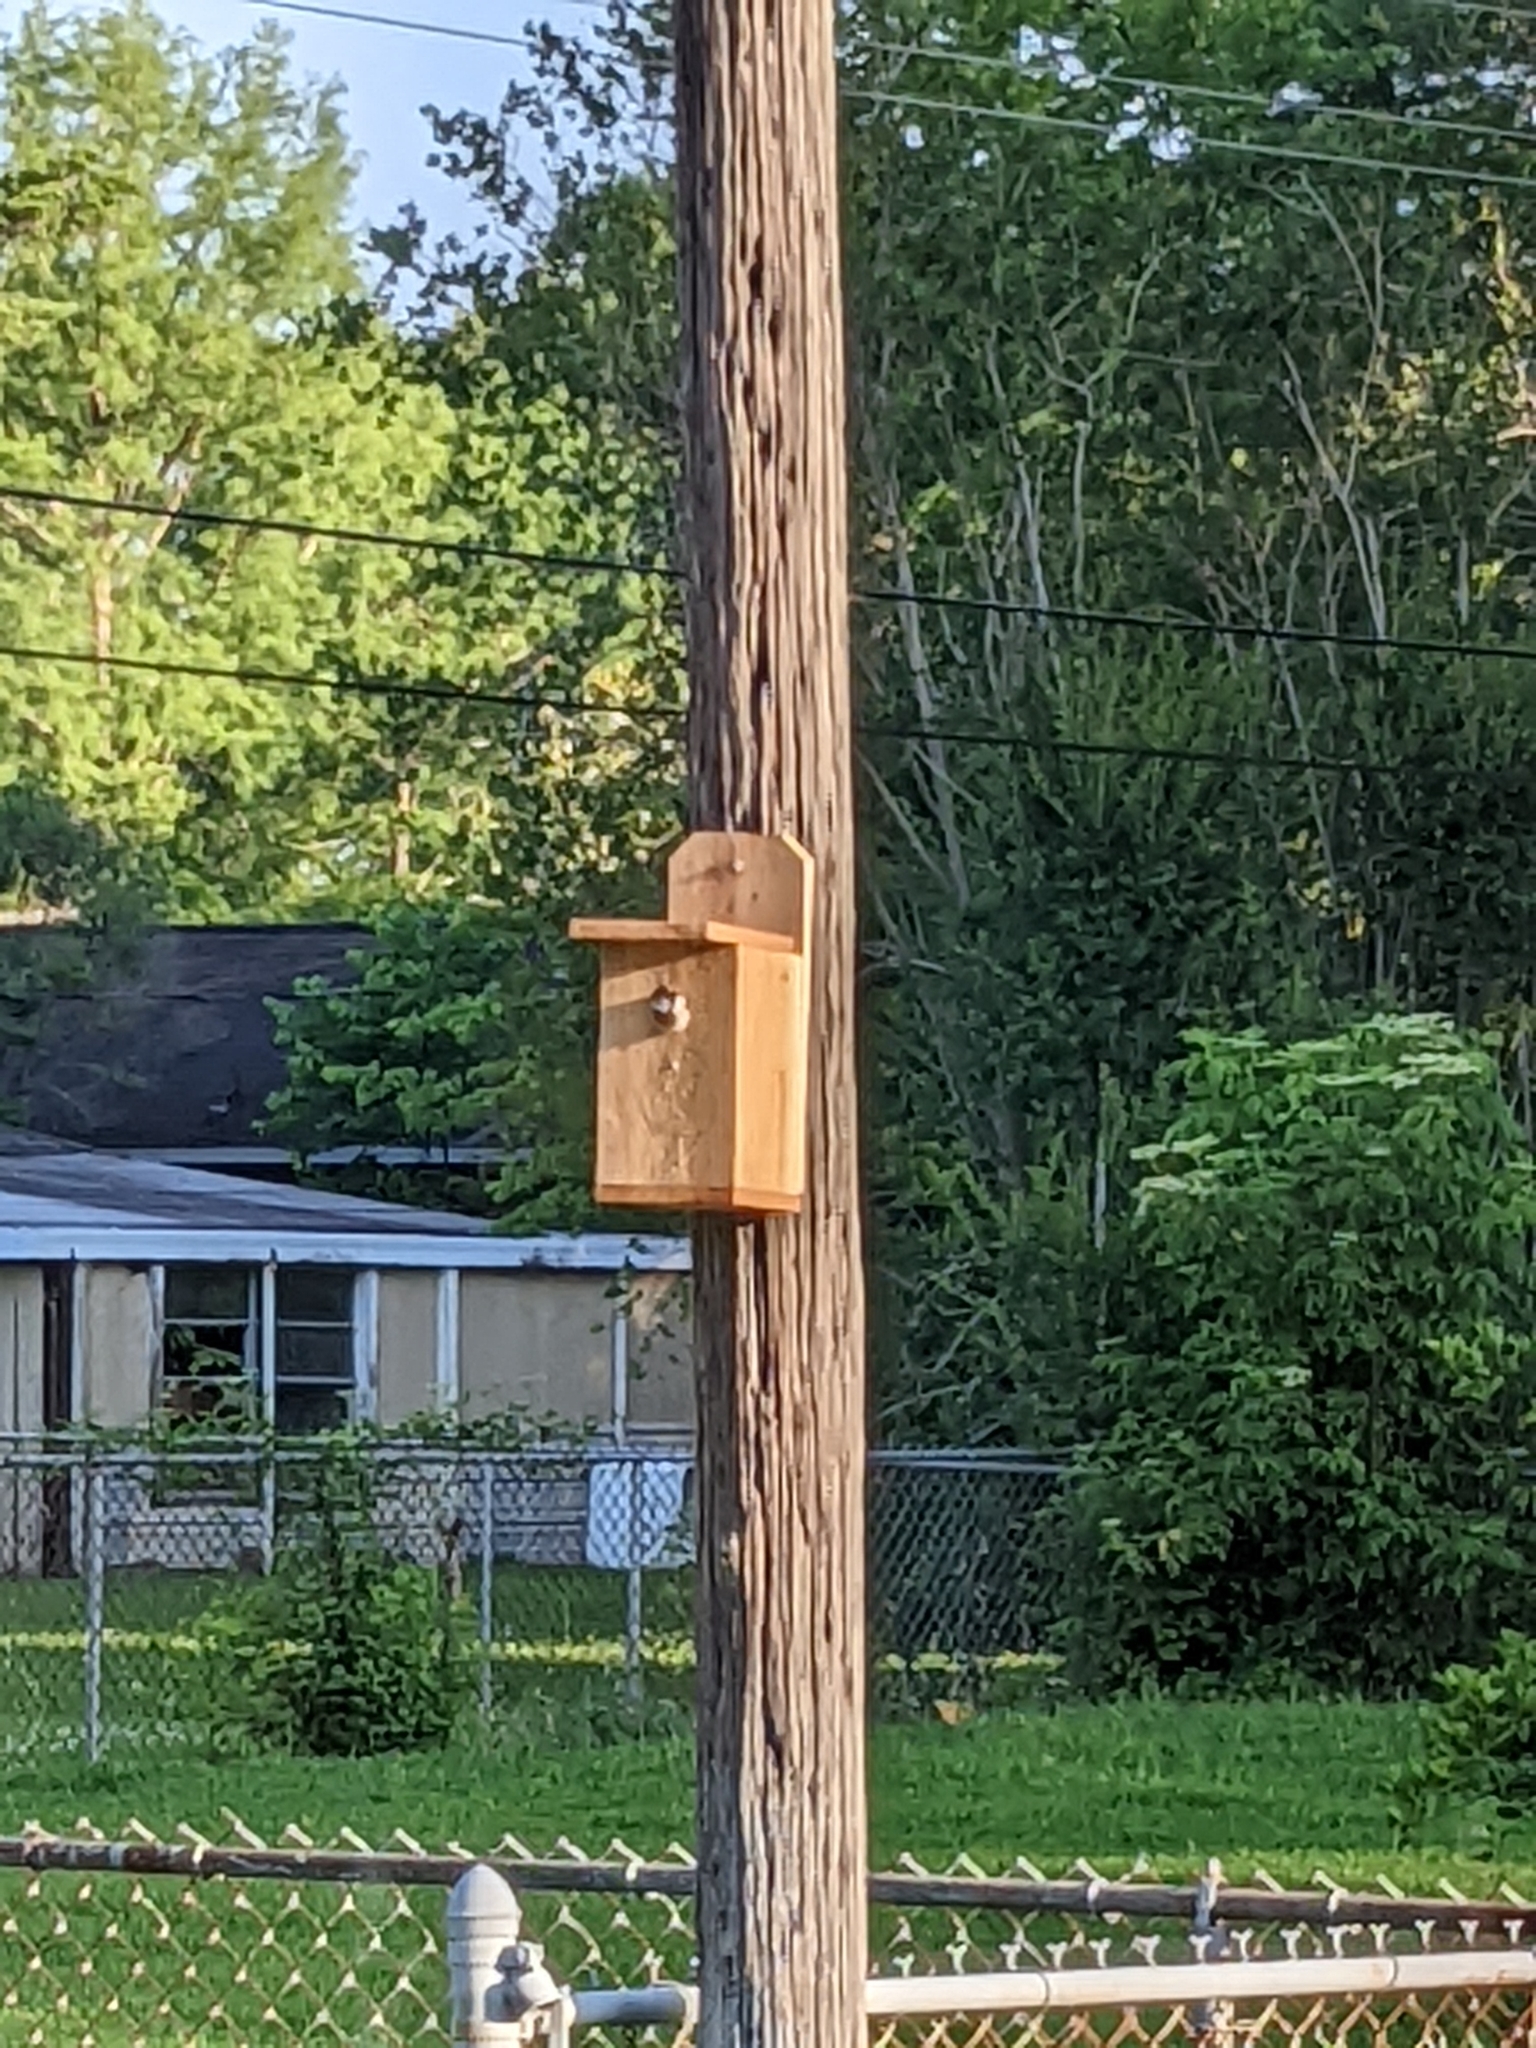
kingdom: Animalia
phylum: Chordata
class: Aves
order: Passeriformes
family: Passeridae
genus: Passer
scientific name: Passer domesticus
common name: House sparrow
